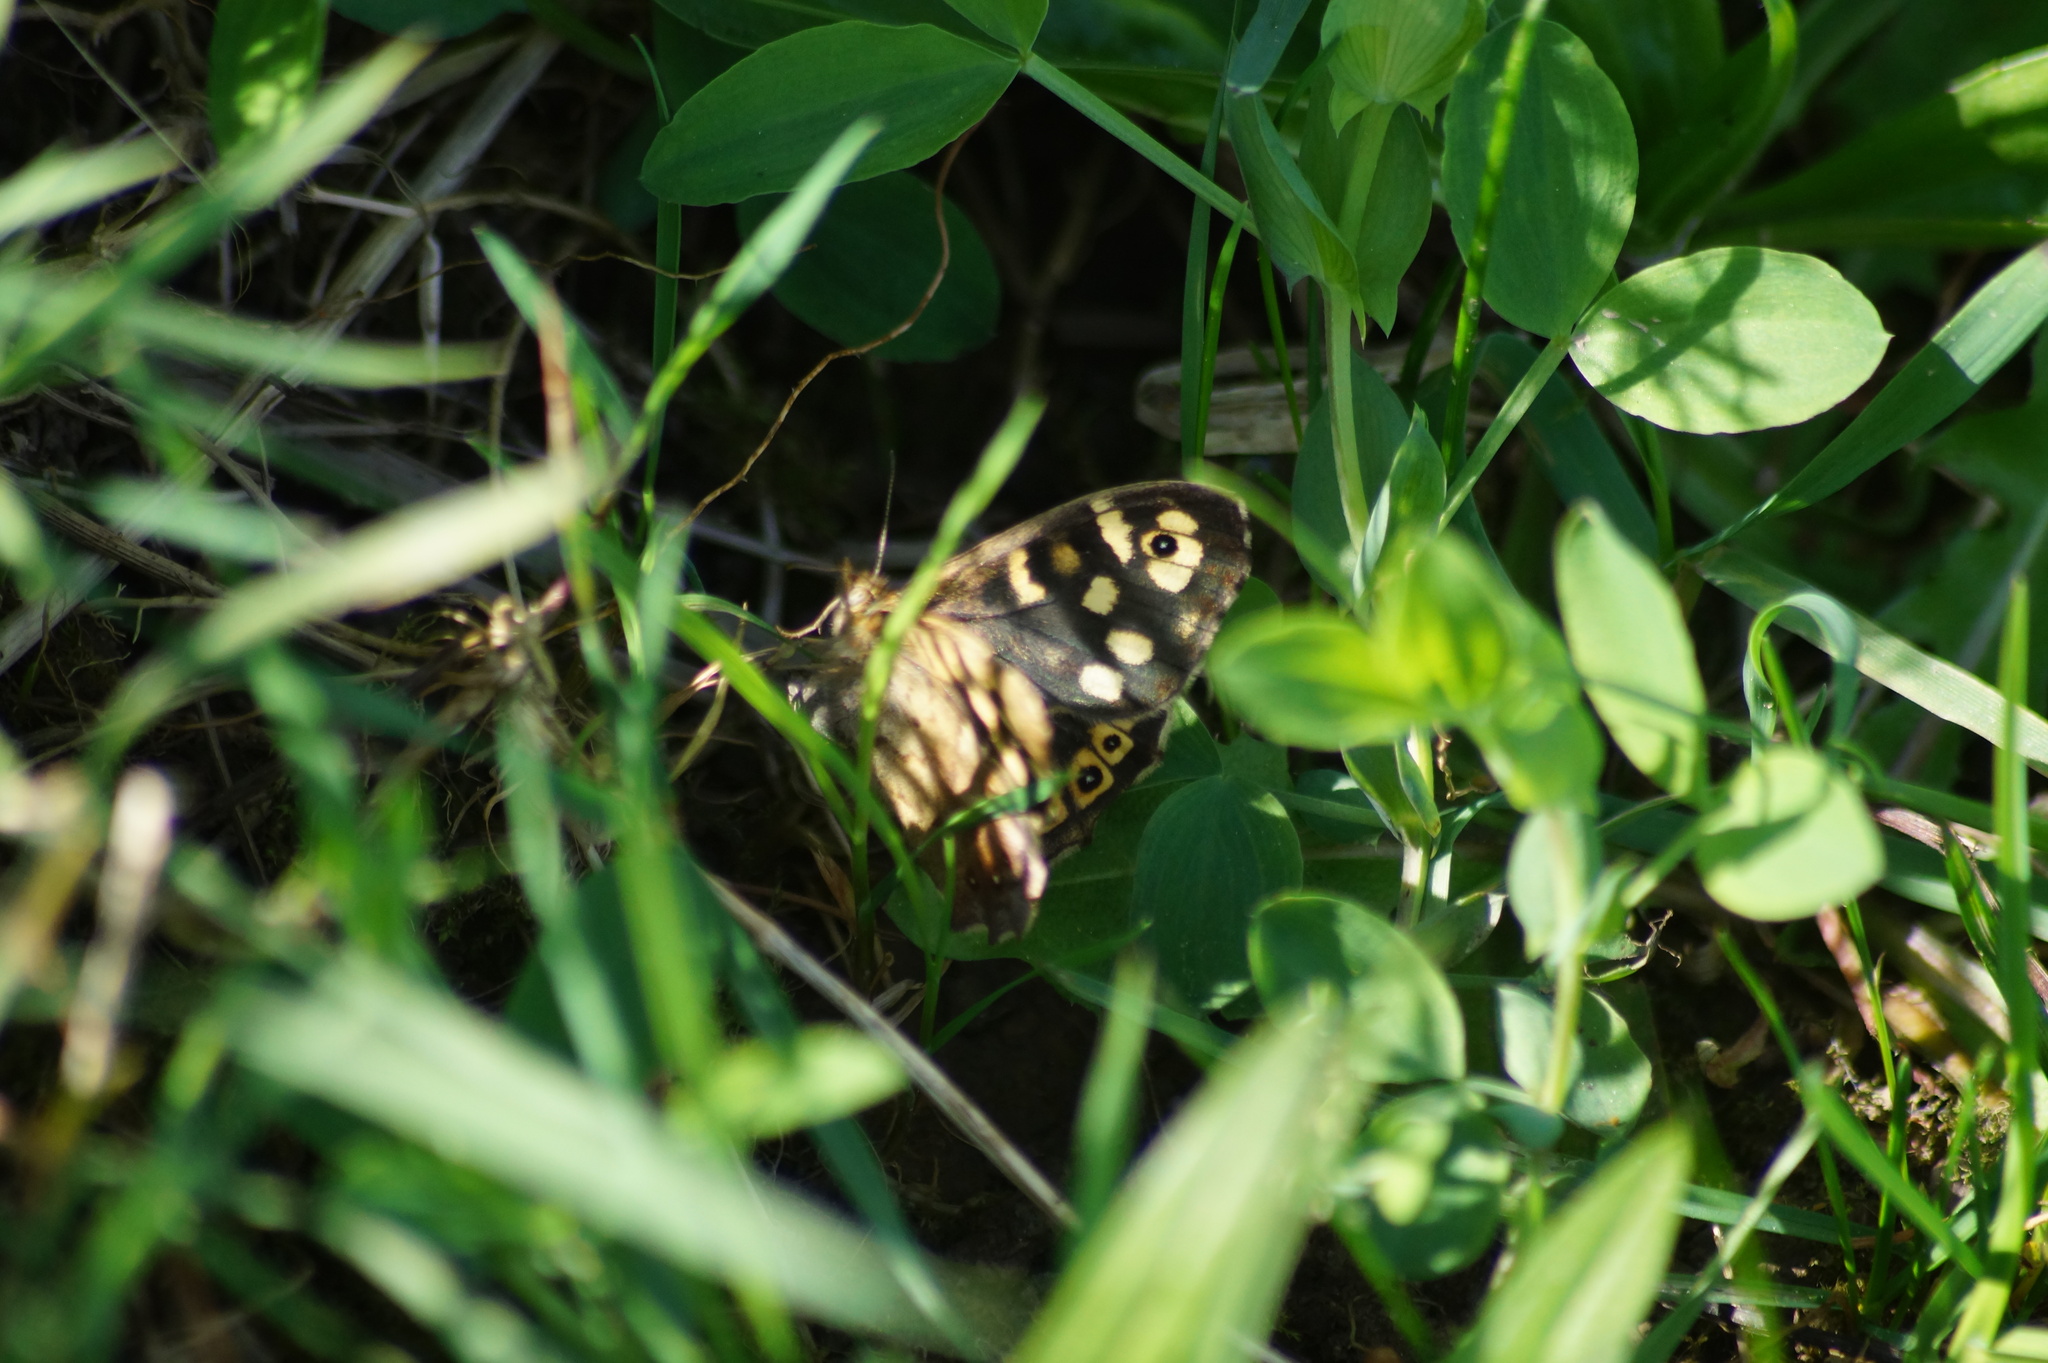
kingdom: Animalia
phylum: Arthropoda
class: Insecta
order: Lepidoptera
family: Nymphalidae
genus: Pararge
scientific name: Pararge aegeria
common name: Speckled wood
